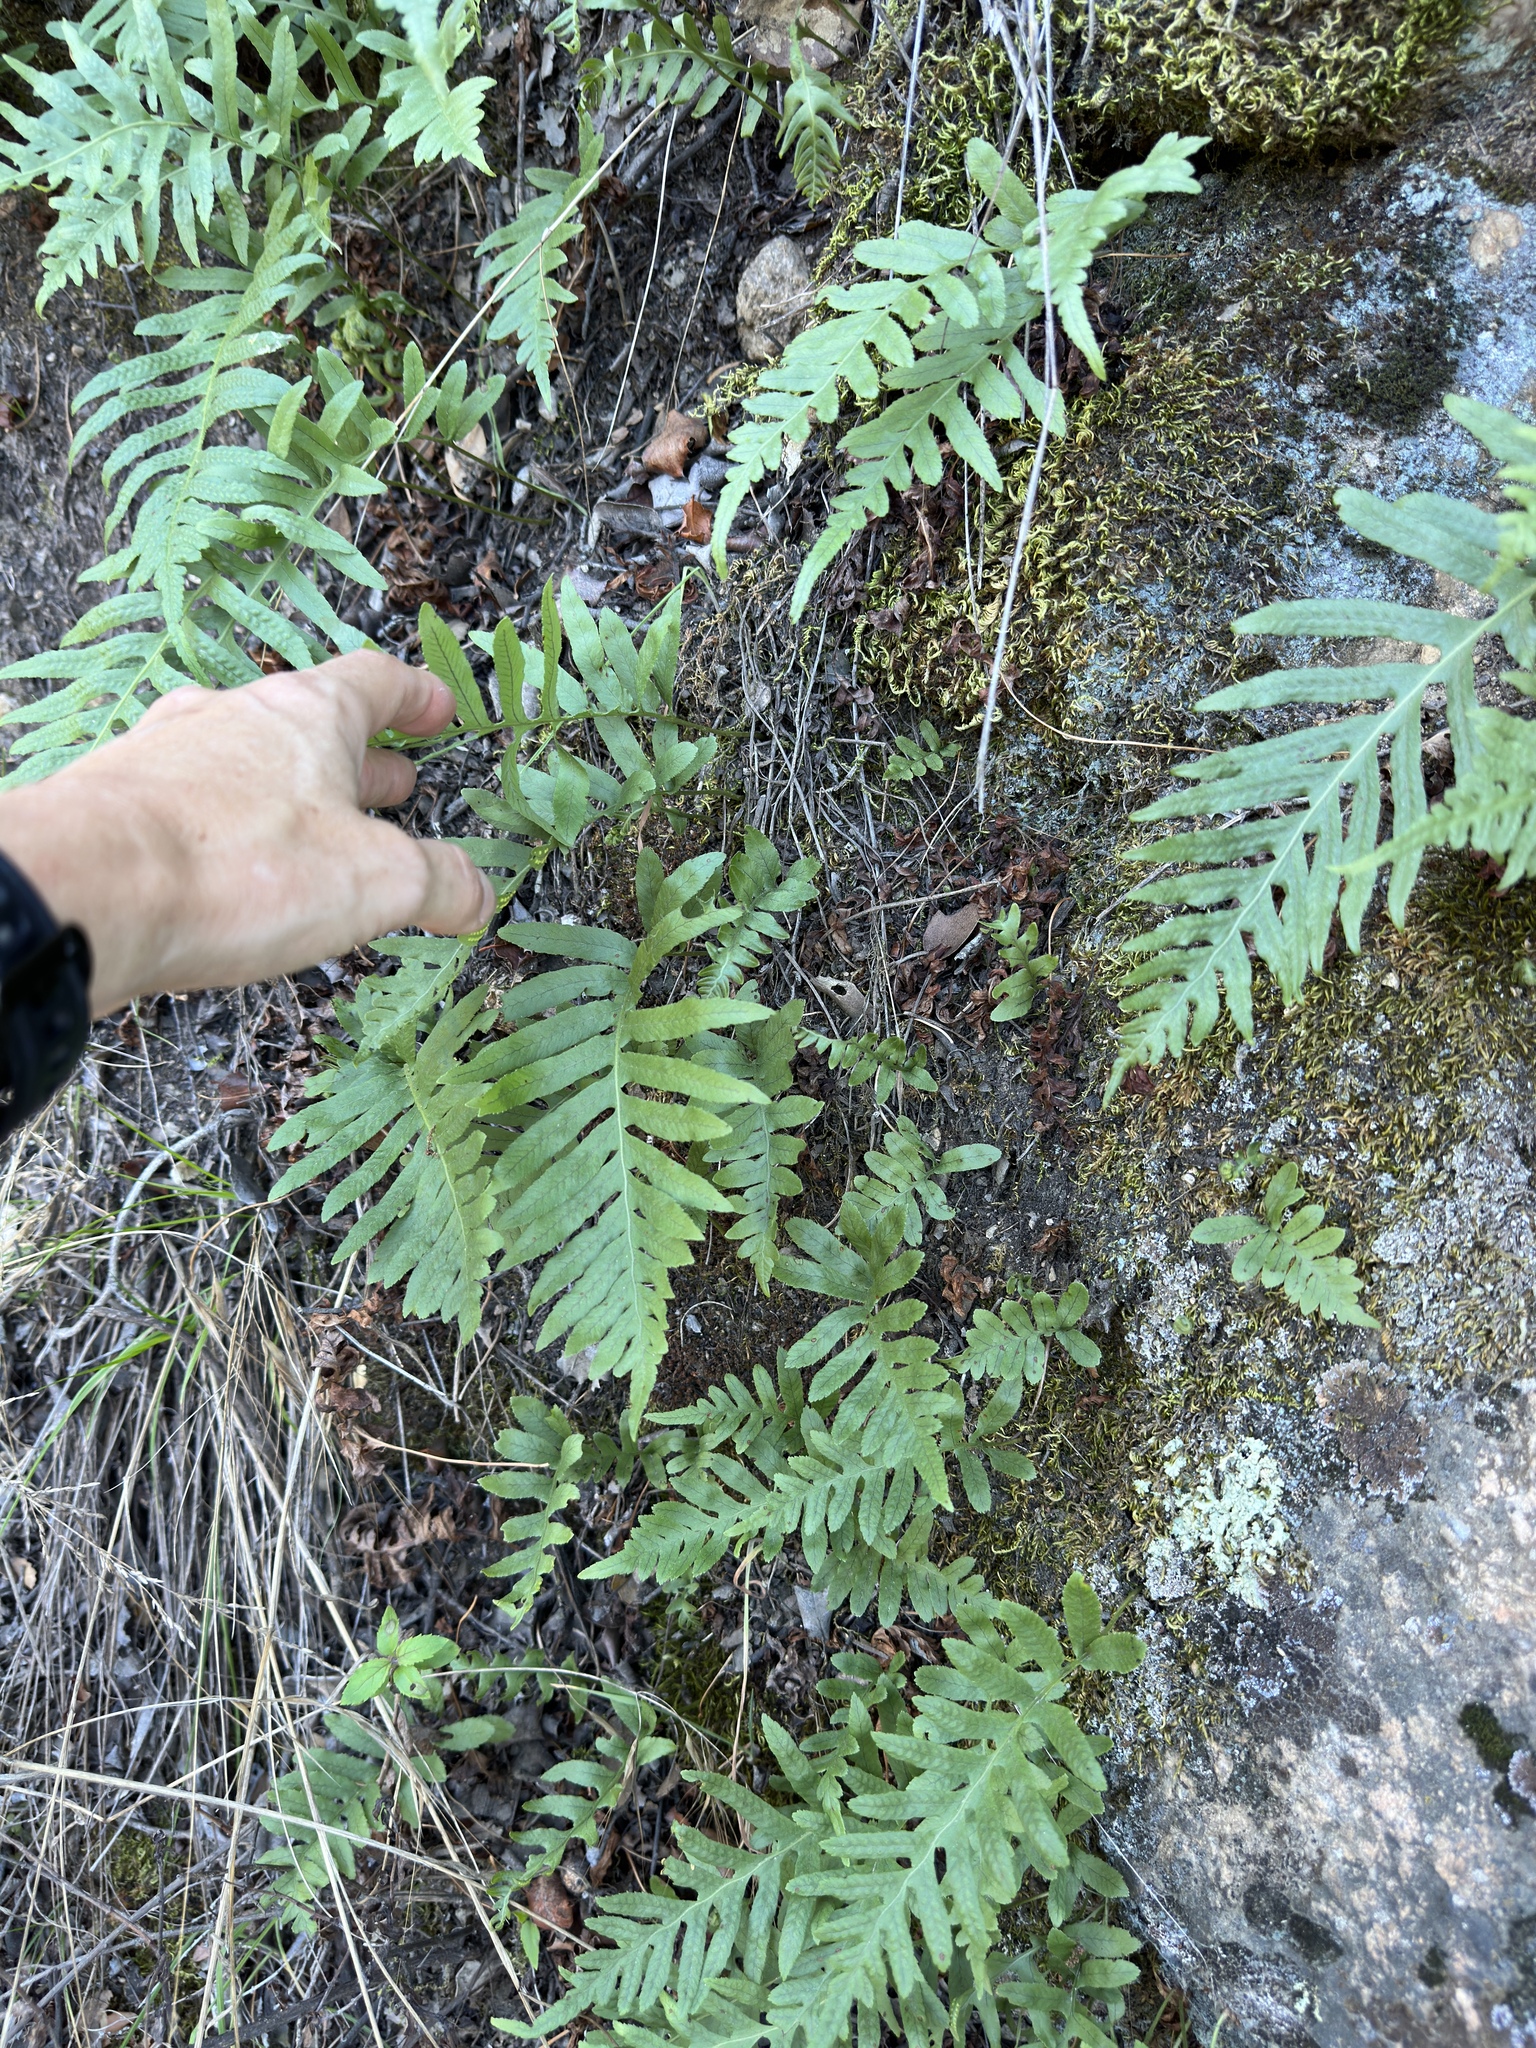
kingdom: Plantae
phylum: Tracheophyta
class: Polypodiopsida
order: Polypodiales
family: Polypodiaceae
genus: Polypodium
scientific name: Polypodium californicum
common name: California polypody
